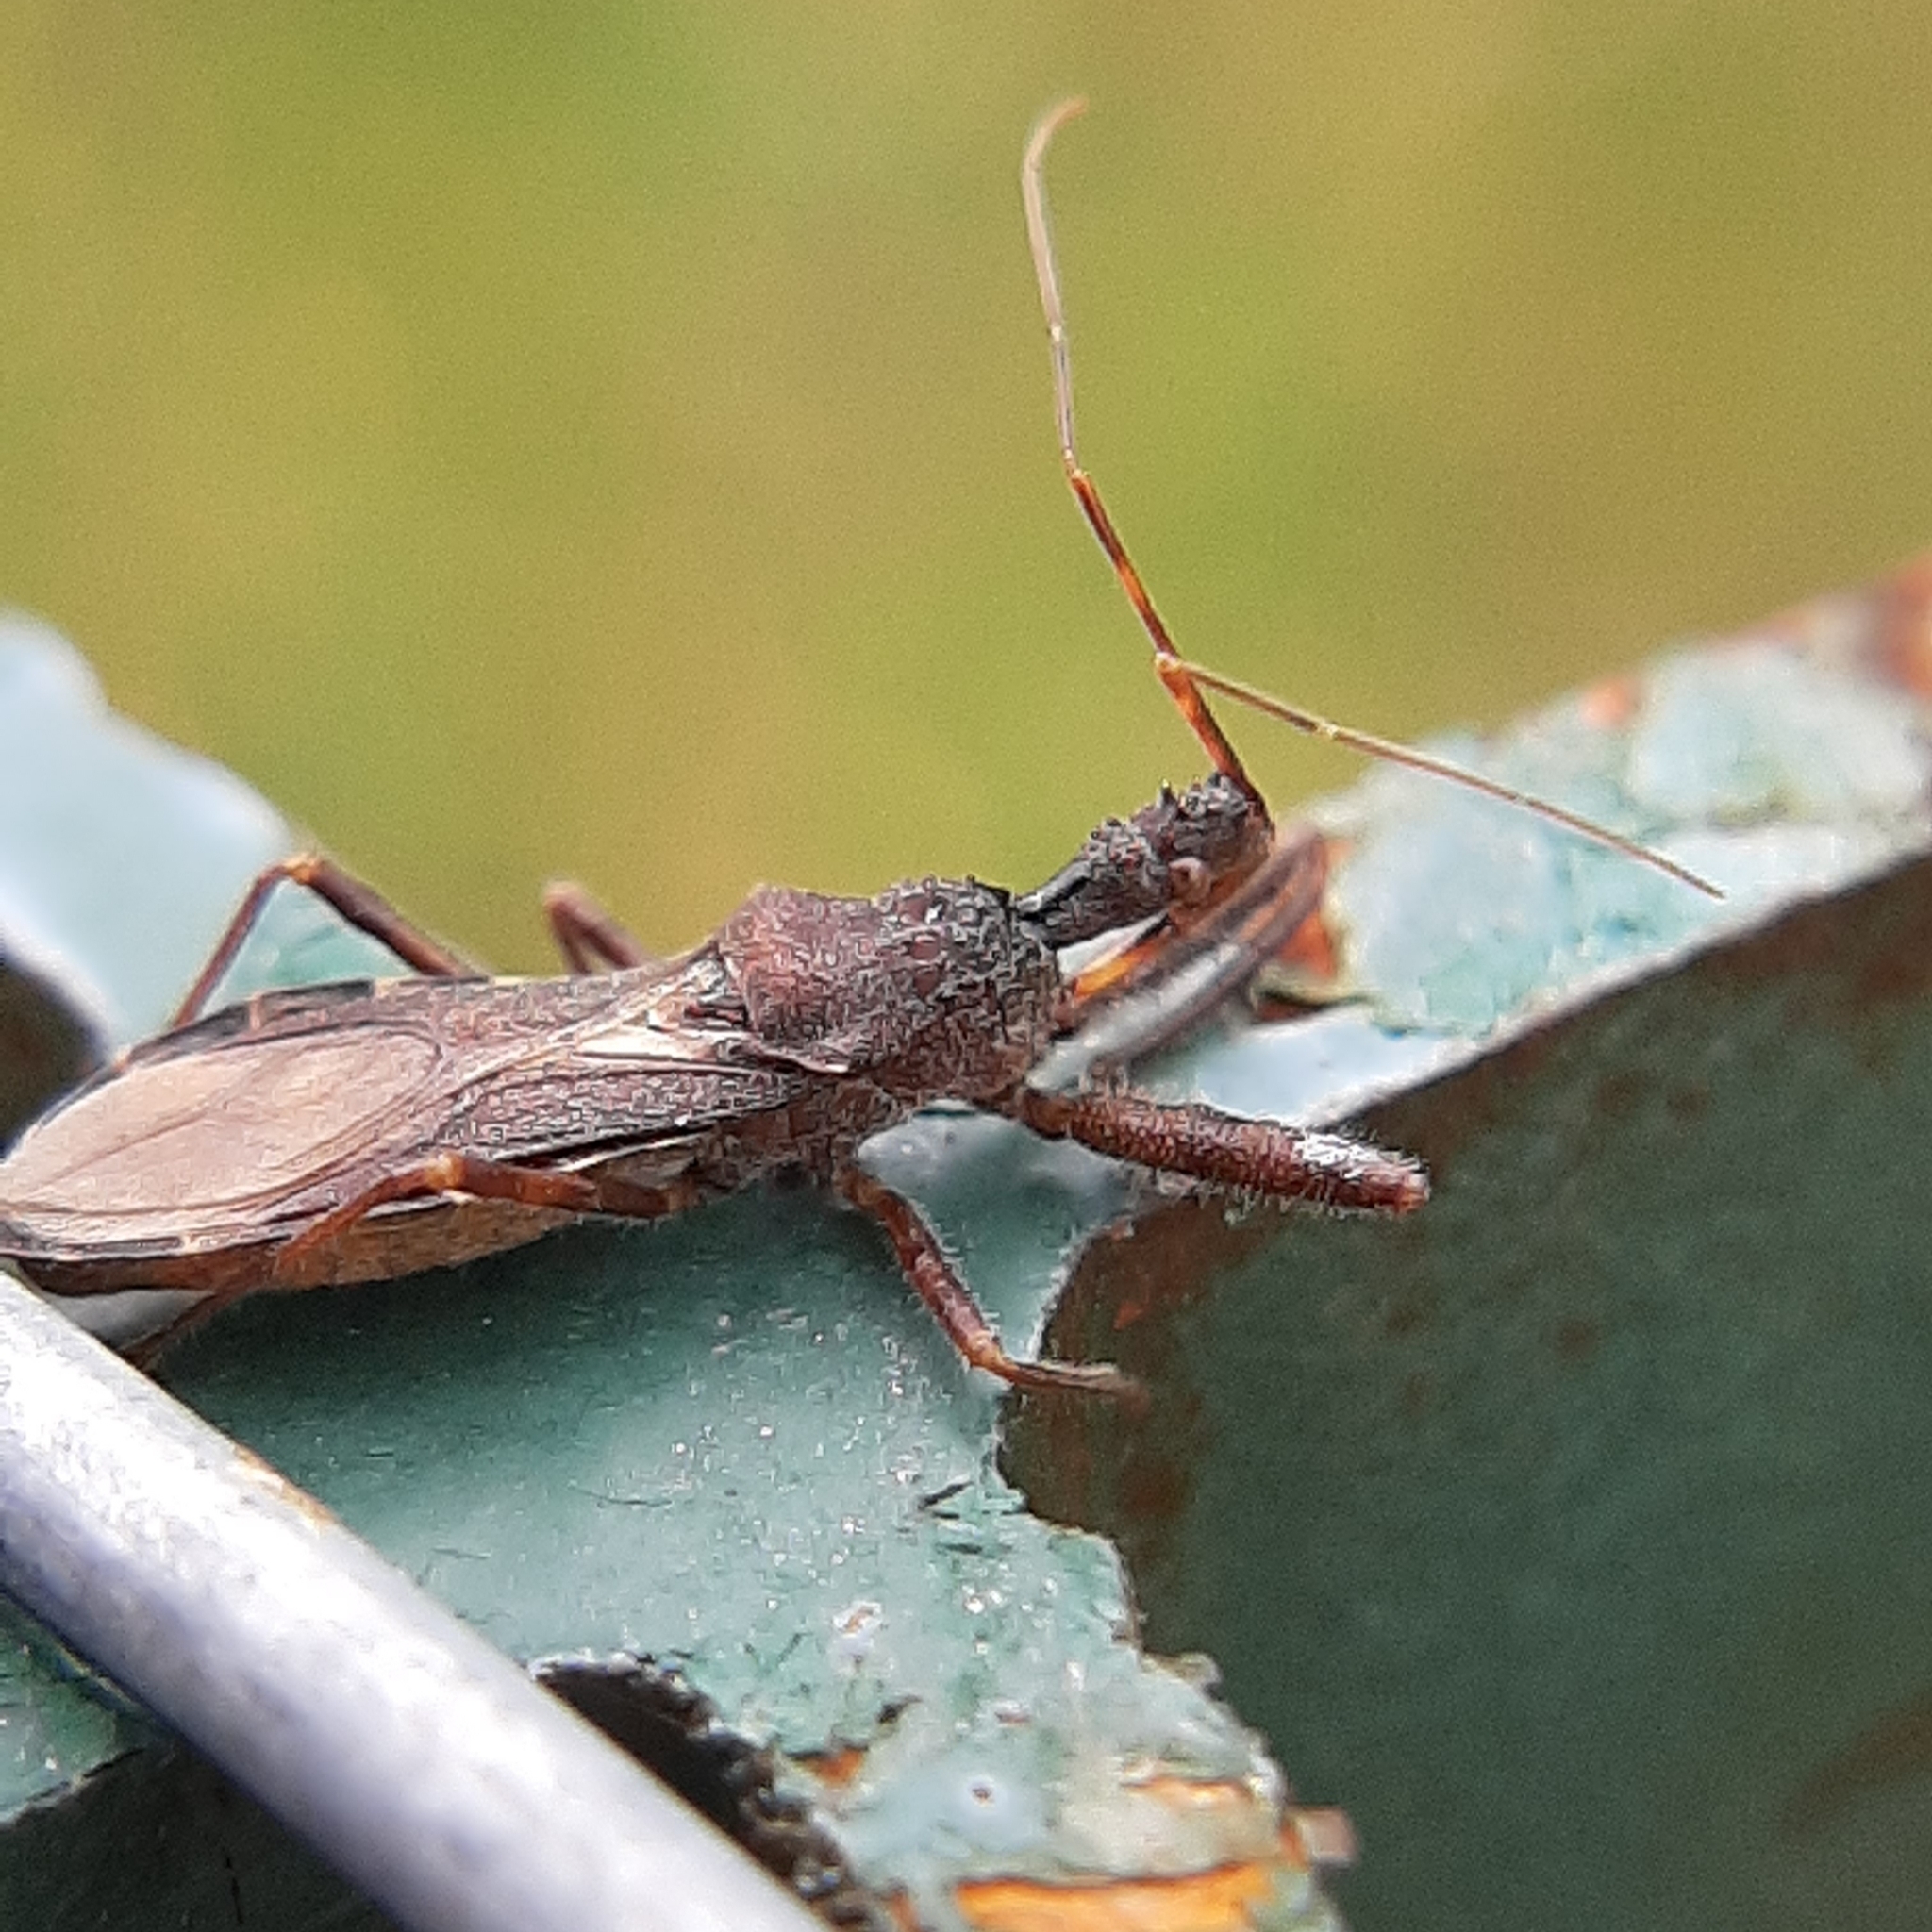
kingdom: Animalia
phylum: Arthropoda
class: Insecta
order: Hemiptera
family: Reduviidae
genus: Acholla
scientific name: Acholla multispinosa
